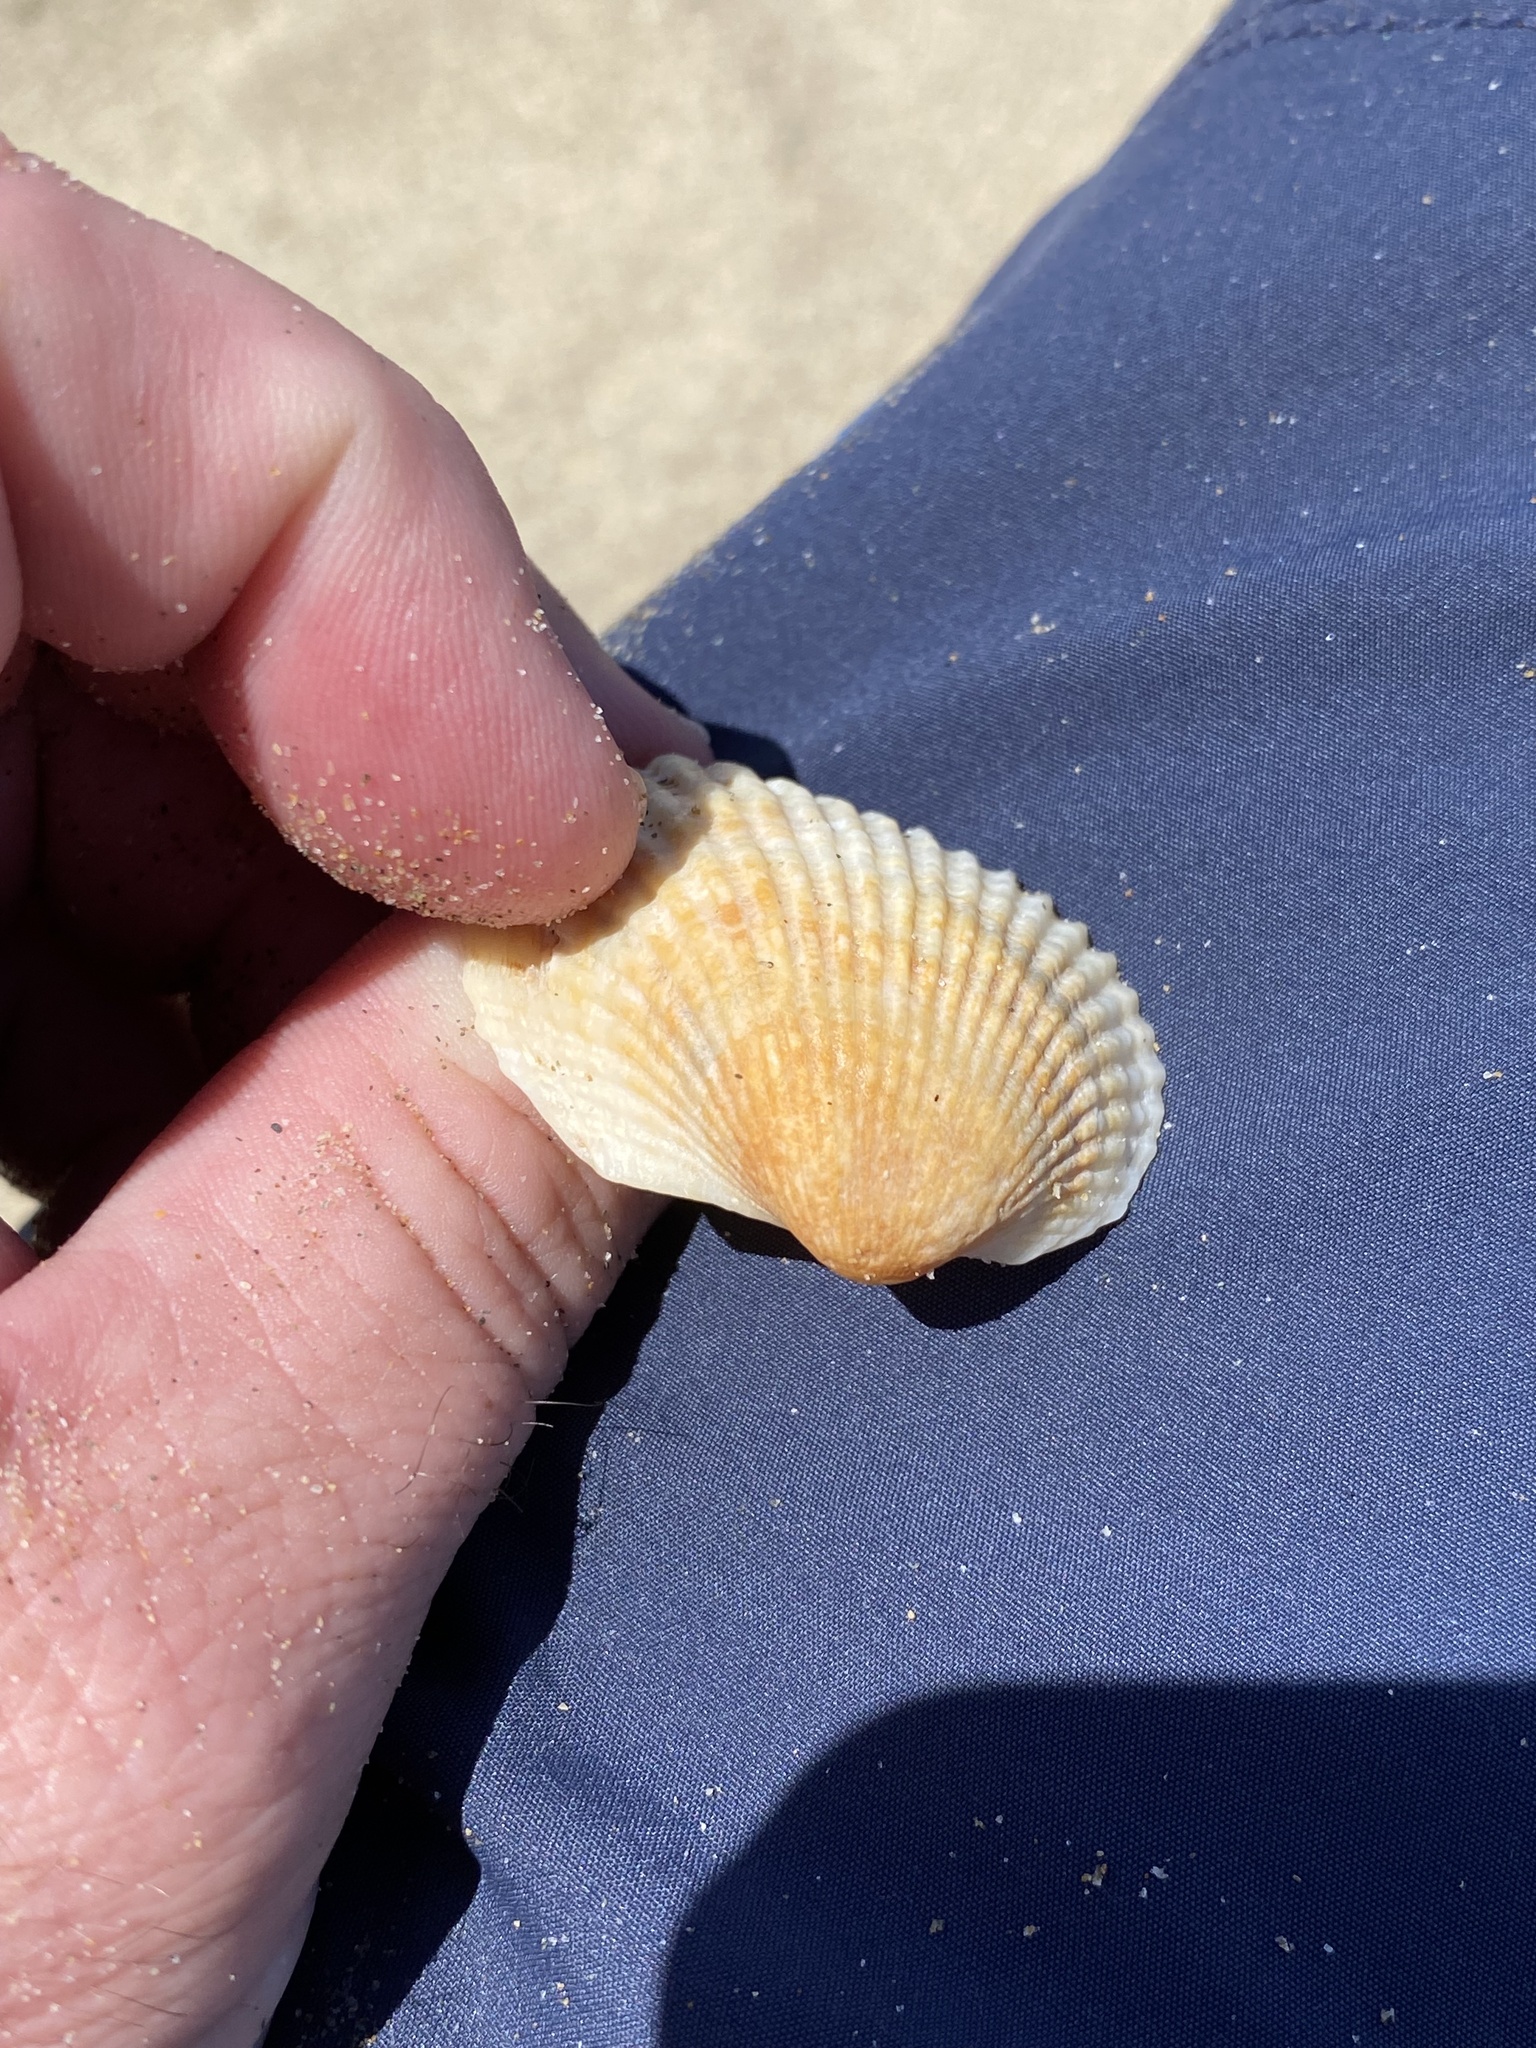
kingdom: Animalia
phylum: Mollusca
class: Bivalvia
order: Arcida
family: Arcidae
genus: Anadara
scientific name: Anadara trapezia
